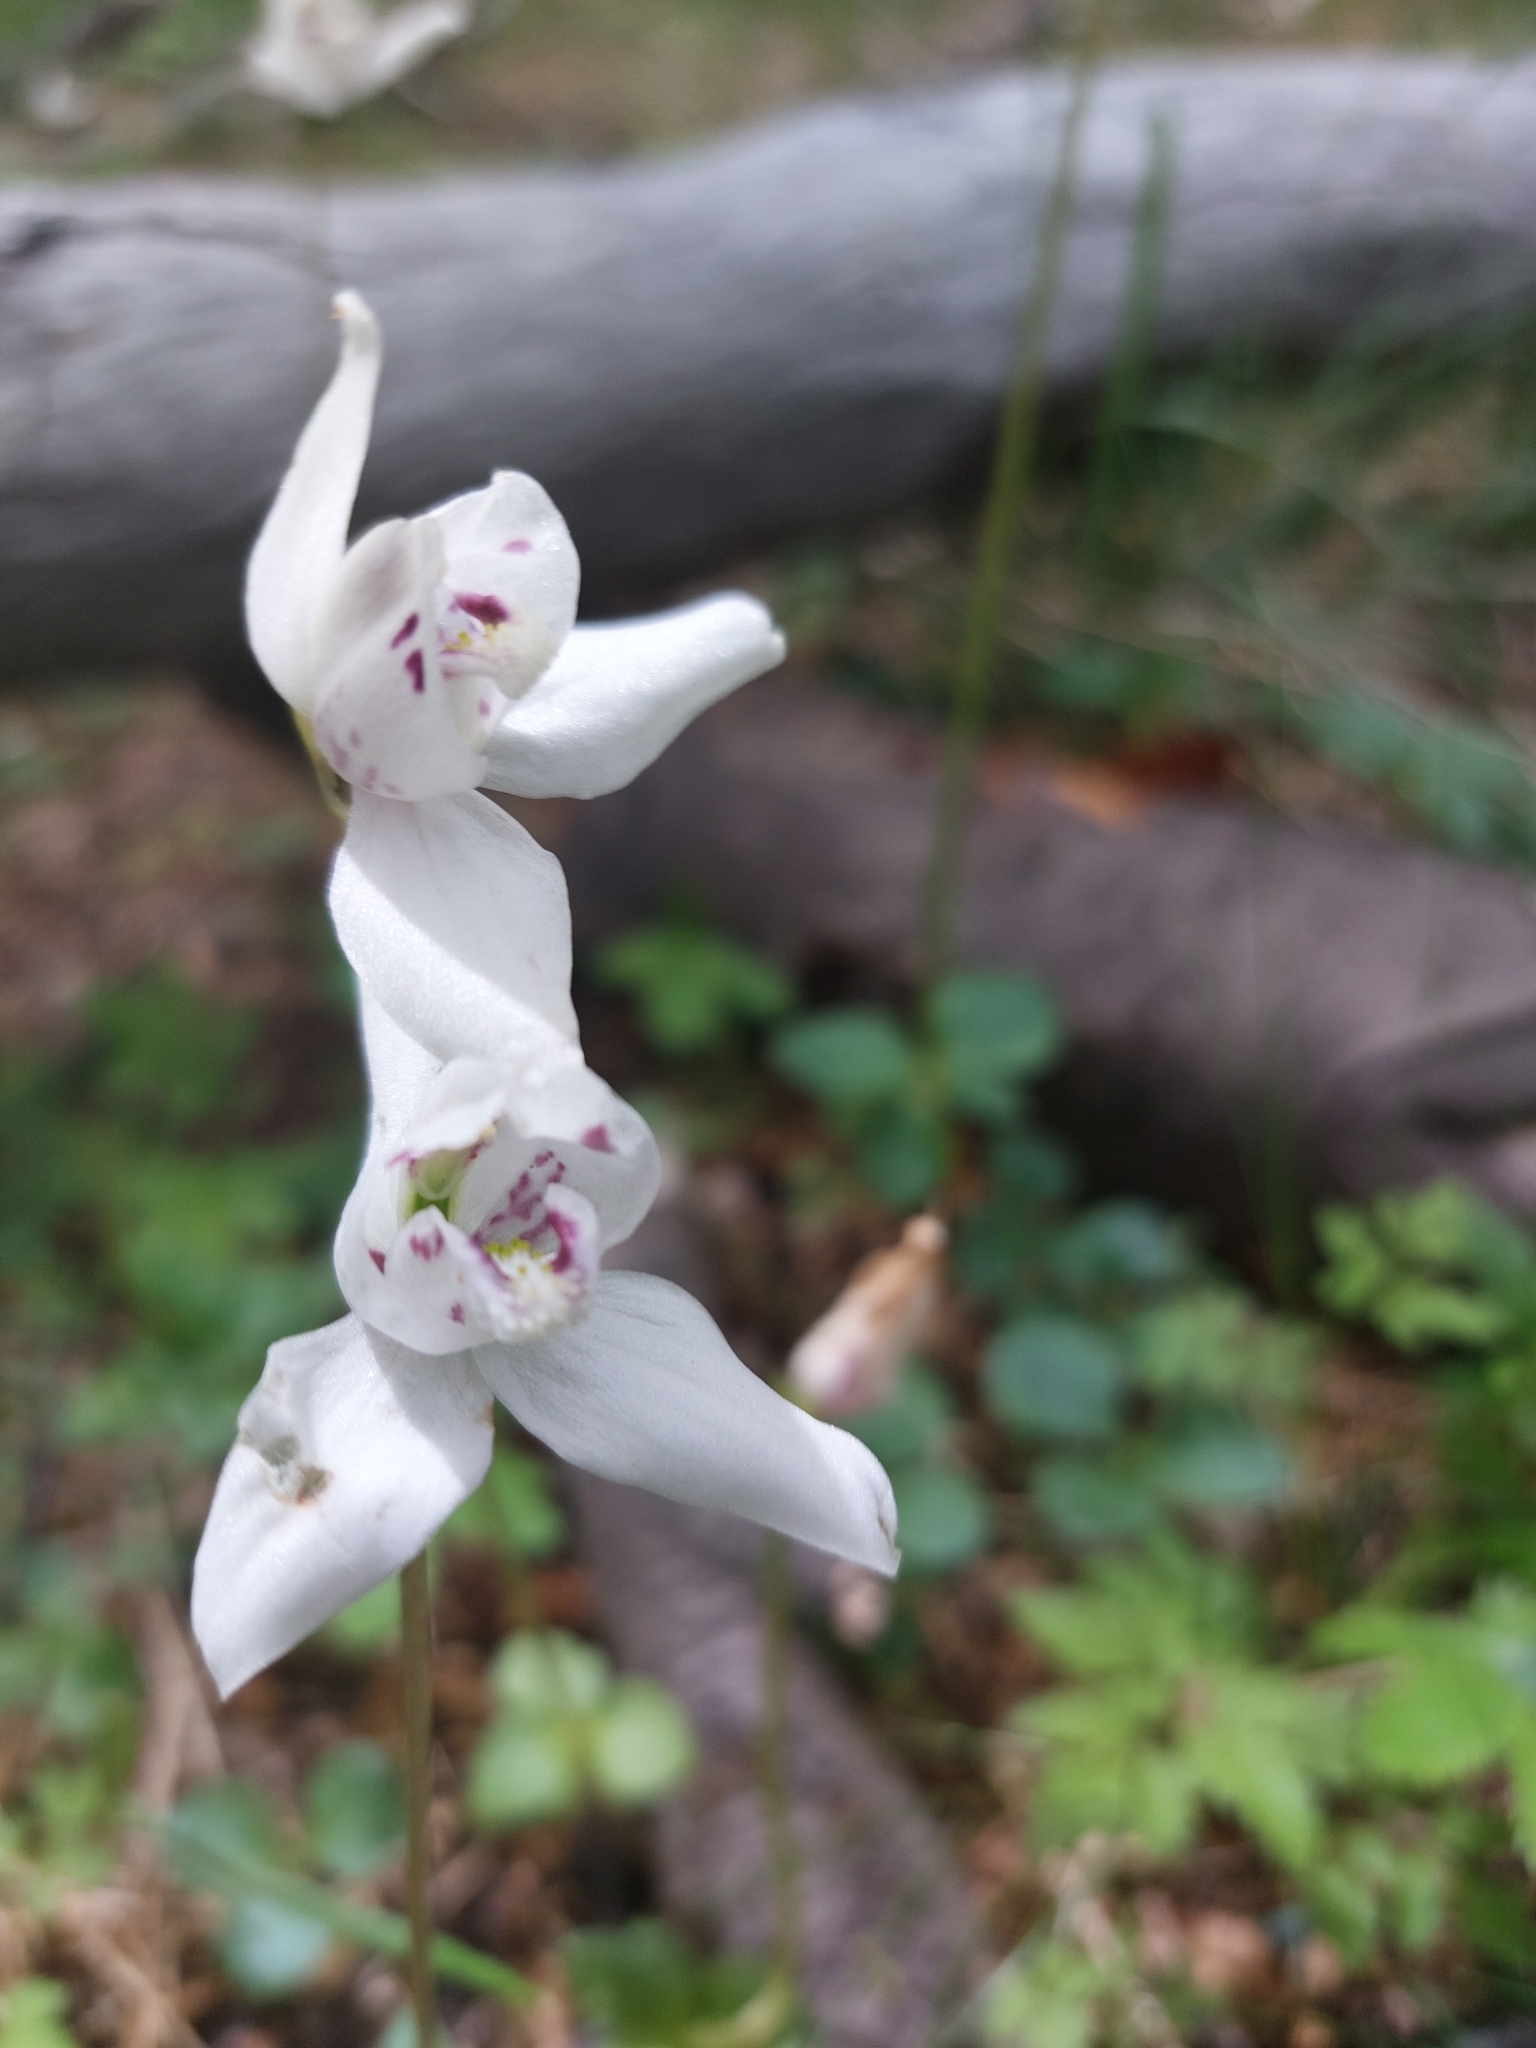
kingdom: Plantae
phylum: Tracheophyta
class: Liliopsida
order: Asparagales
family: Orchidaceae
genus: Codonorchis
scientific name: Codonorchis lessonii
